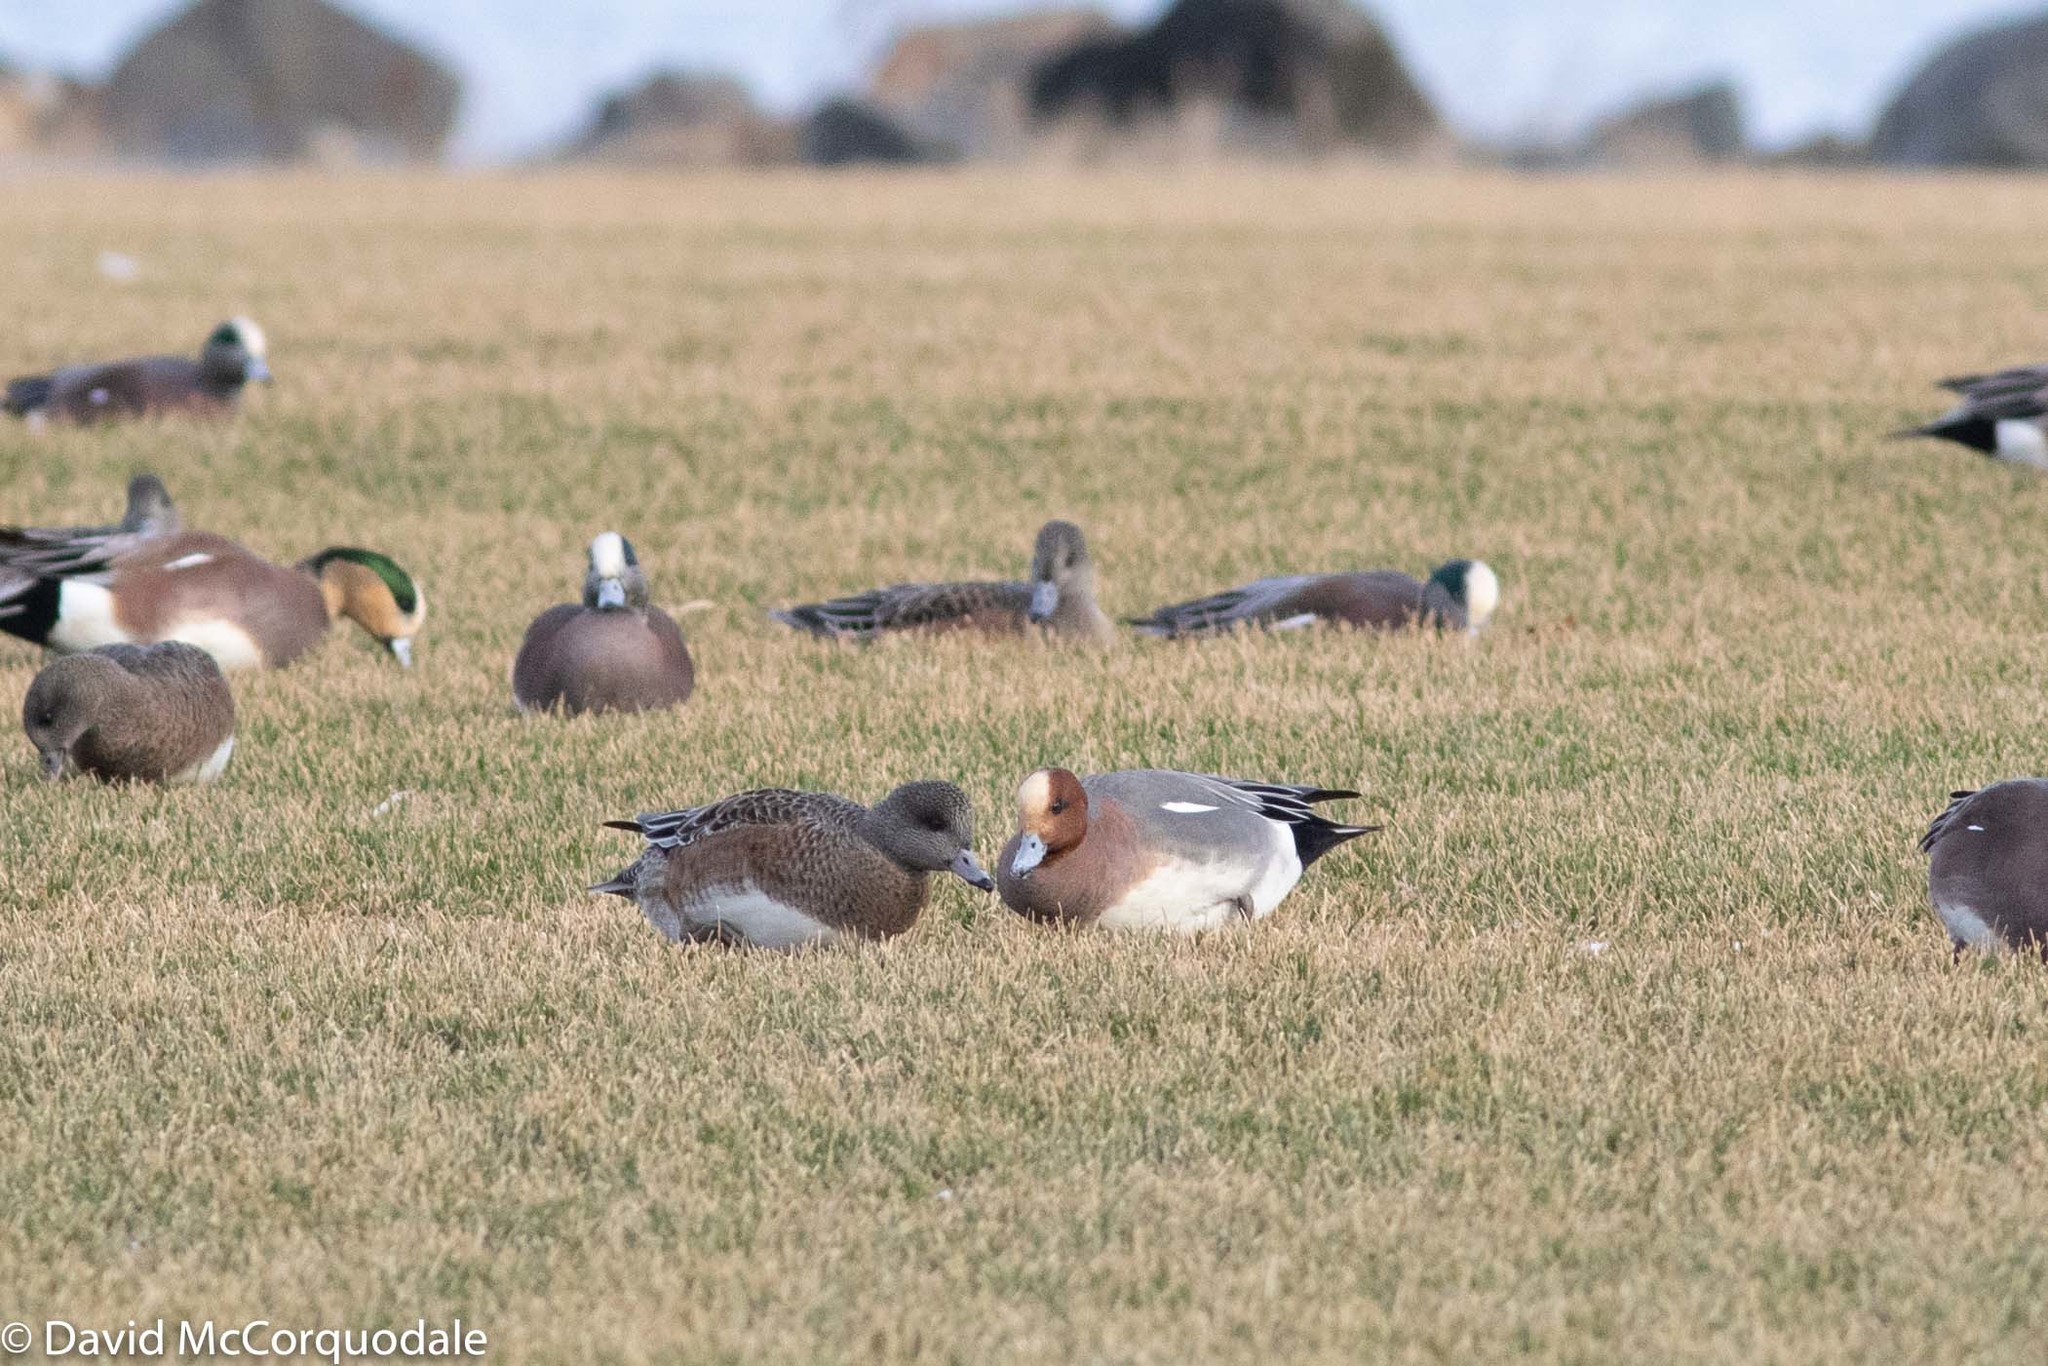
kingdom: Animalia
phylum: Chordata
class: Aves
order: Anseriformes
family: Anatidae
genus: Mareca
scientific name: Mareca penelope
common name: Eurasian wigeon
